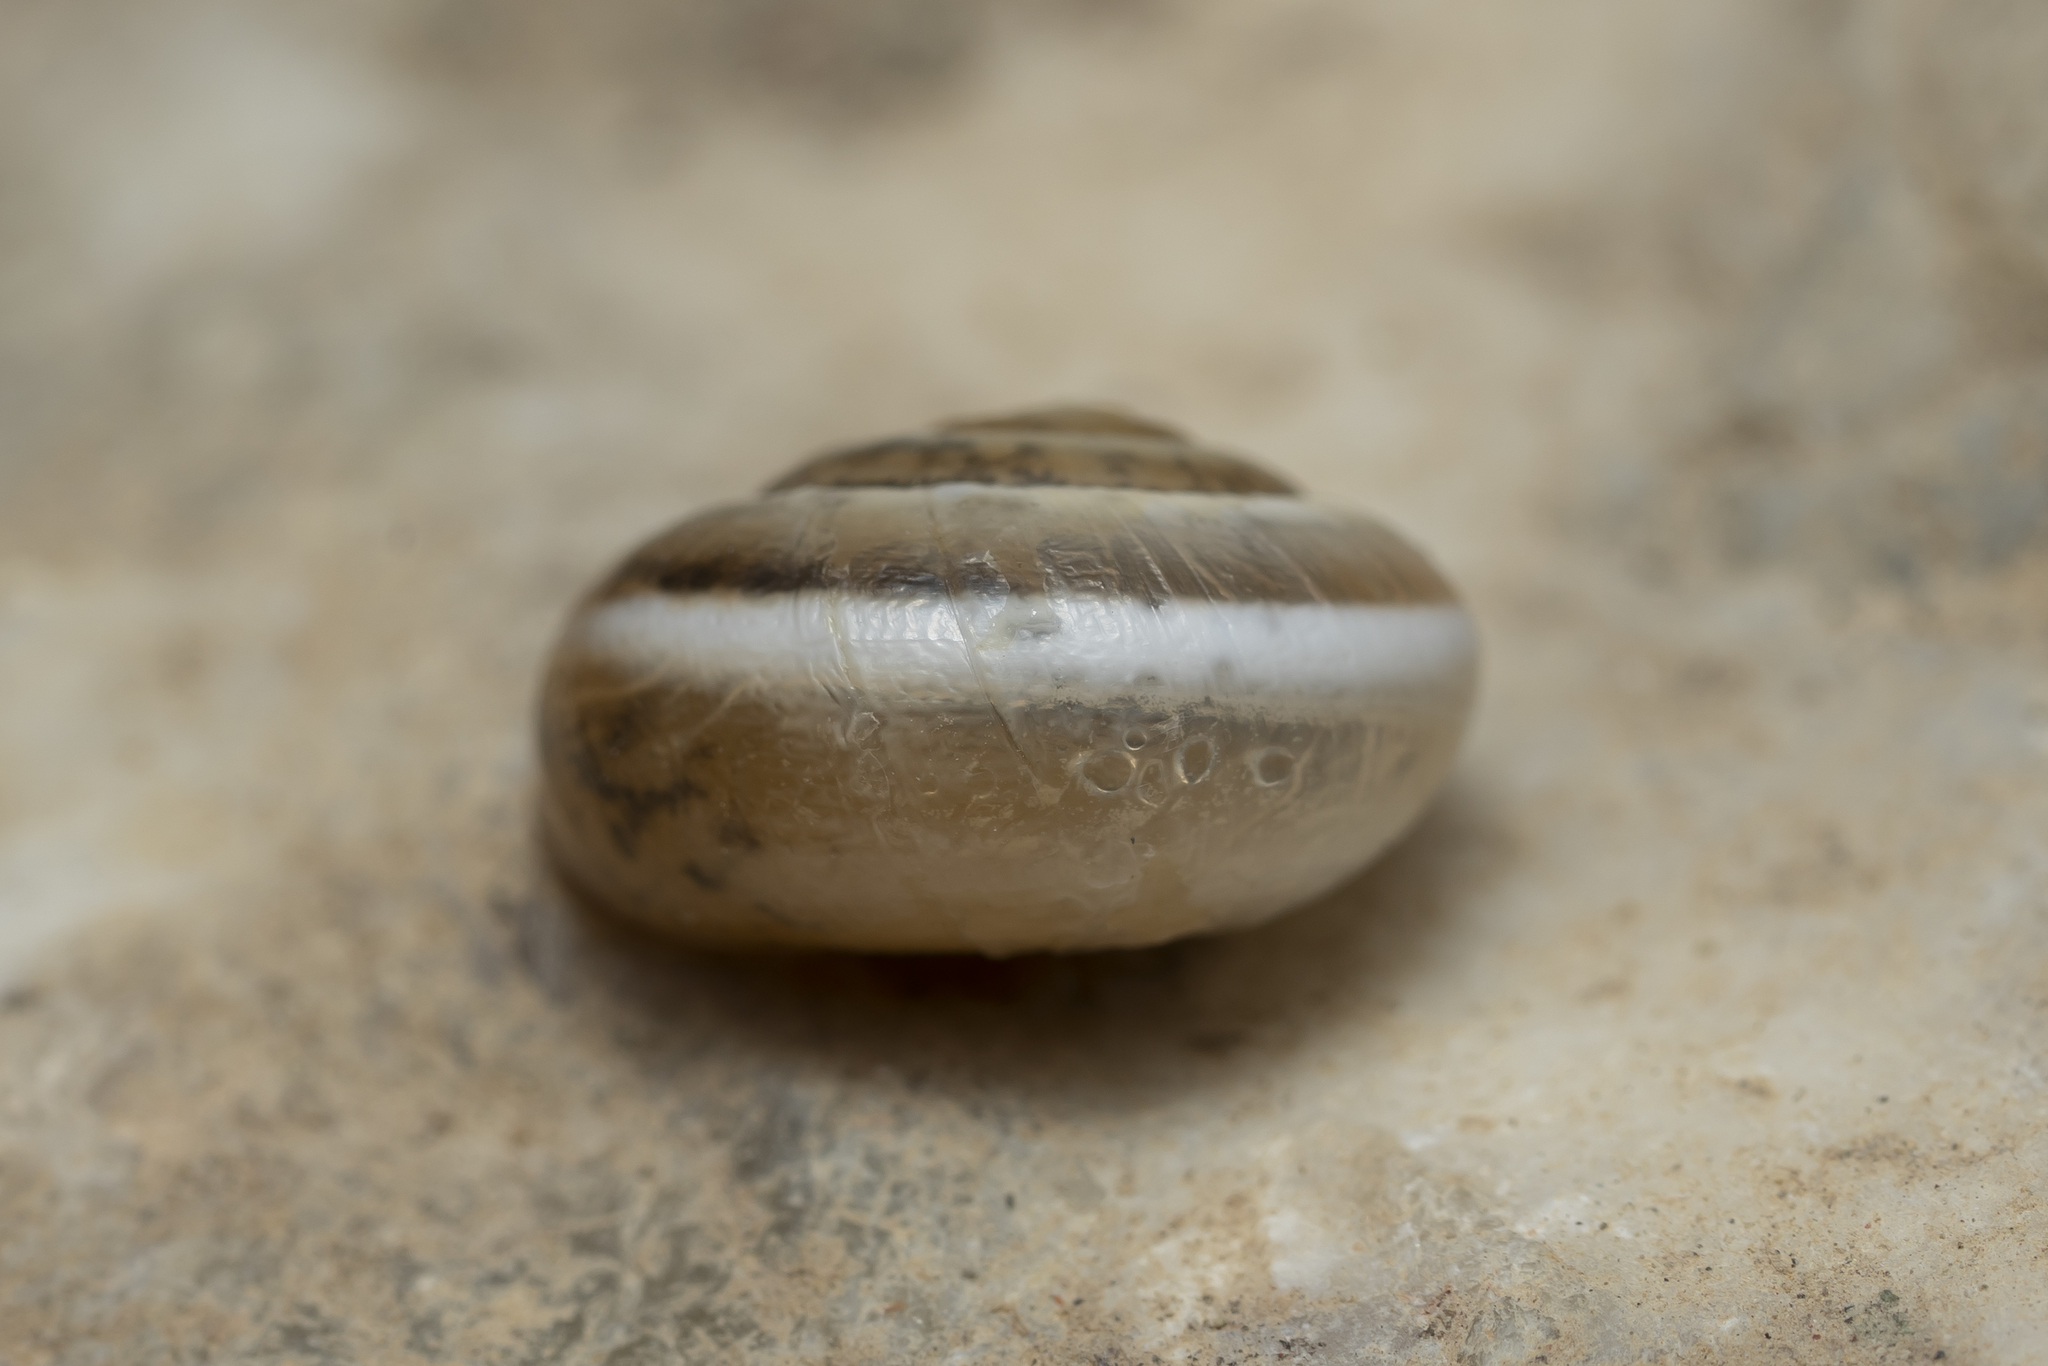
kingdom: Animalia
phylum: Mollusca
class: Gastropoda
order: Stylommatophora
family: Hygromiidae
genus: Monacha
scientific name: Monacha syriaca
